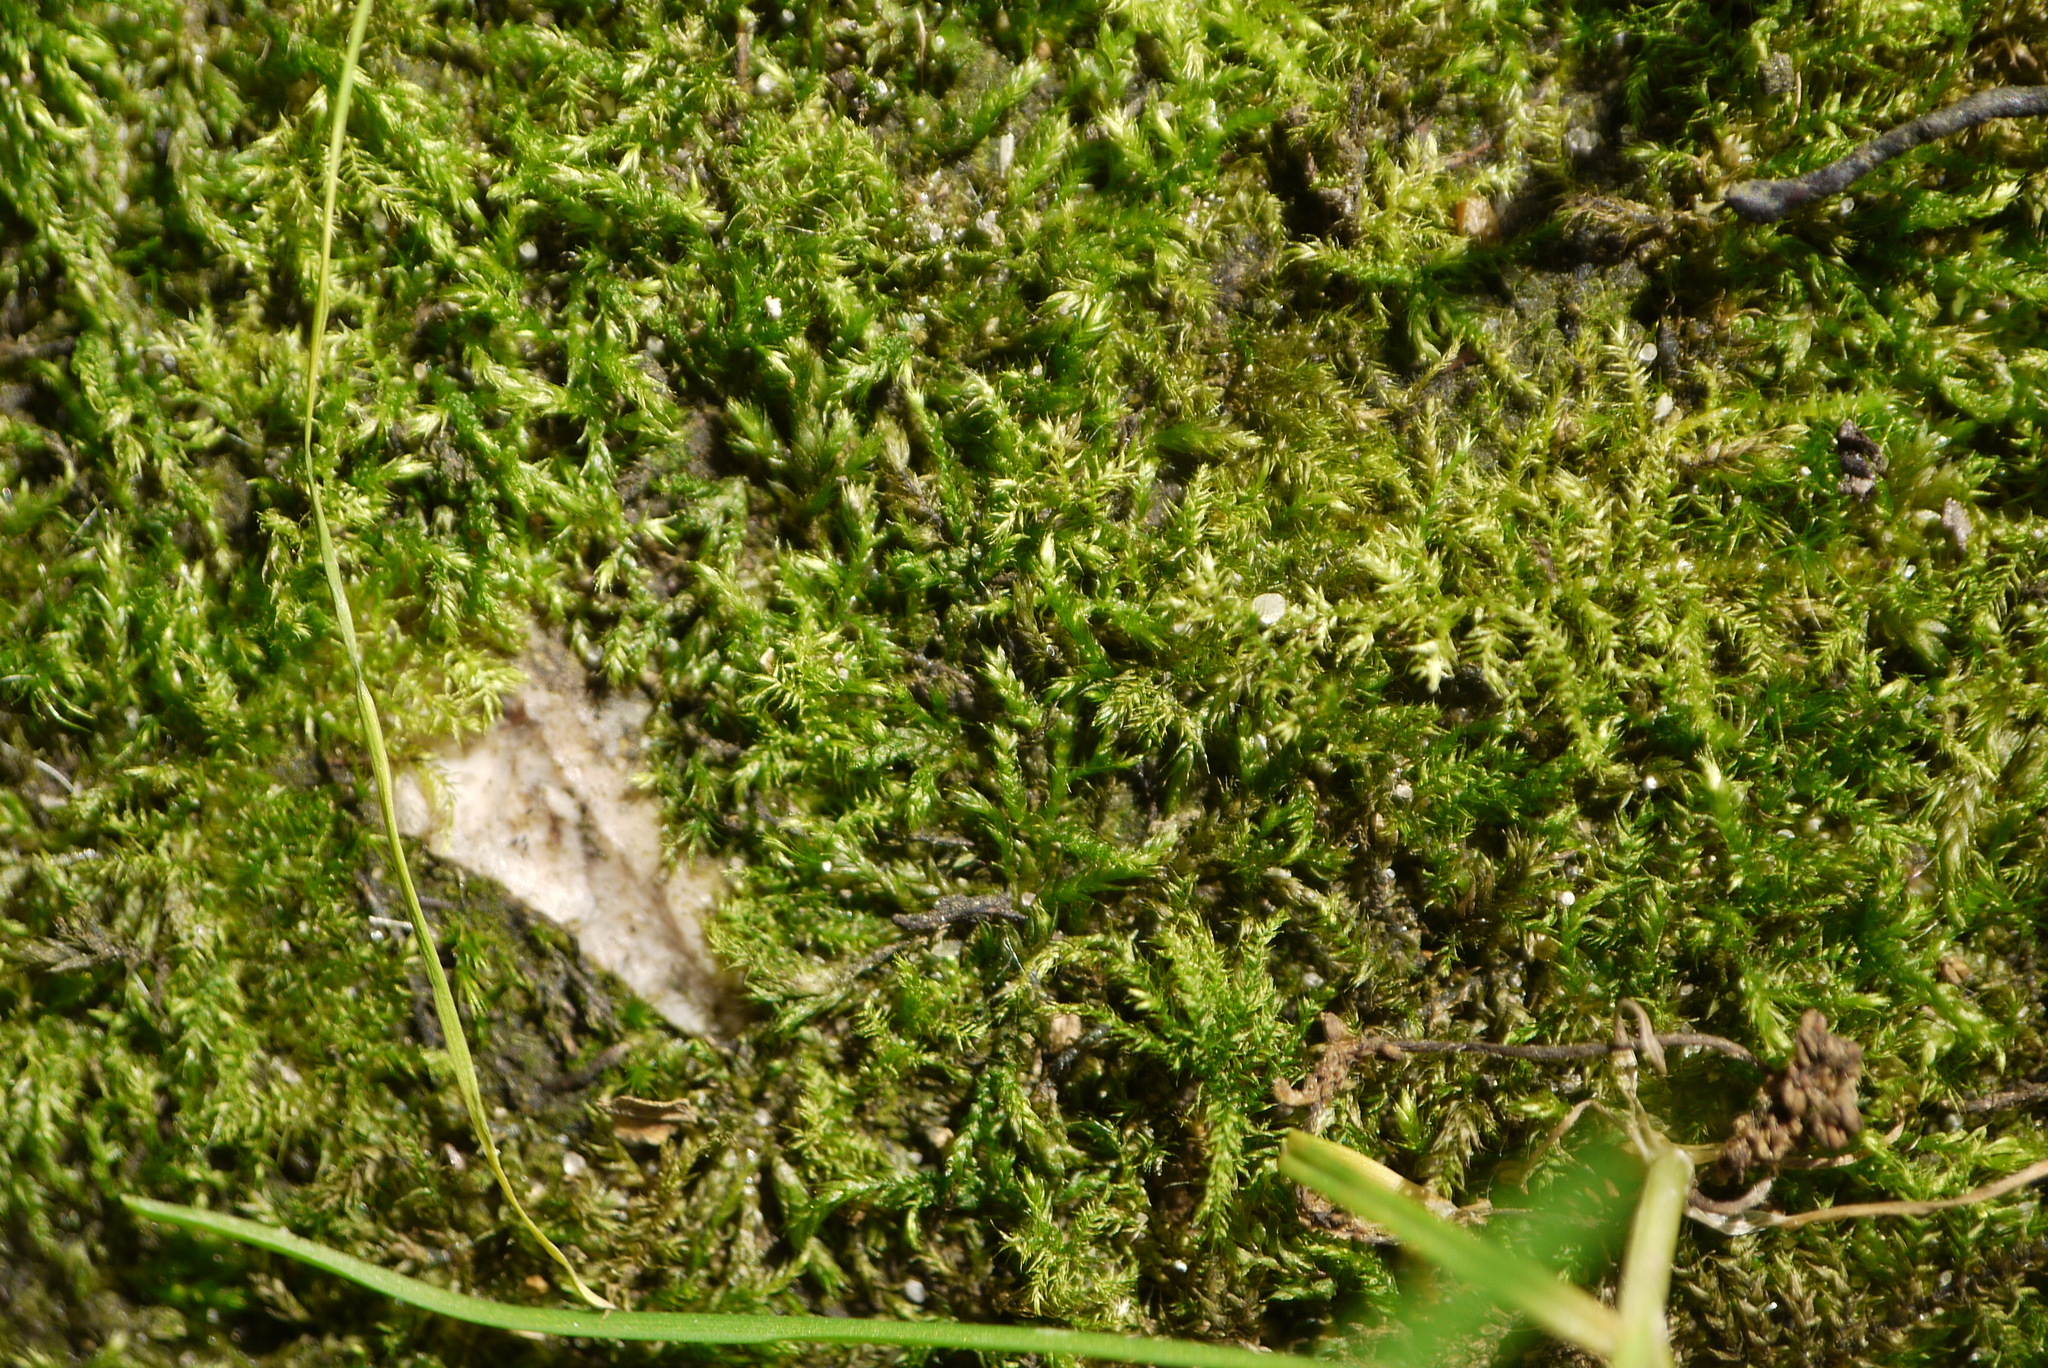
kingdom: Plantae
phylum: Bryophyta
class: Bryopsida
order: Hypnales
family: Brachytheciaceae
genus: Brachythecium
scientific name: Brachythecium rutabulum
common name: Rough-stalked feather-moss
